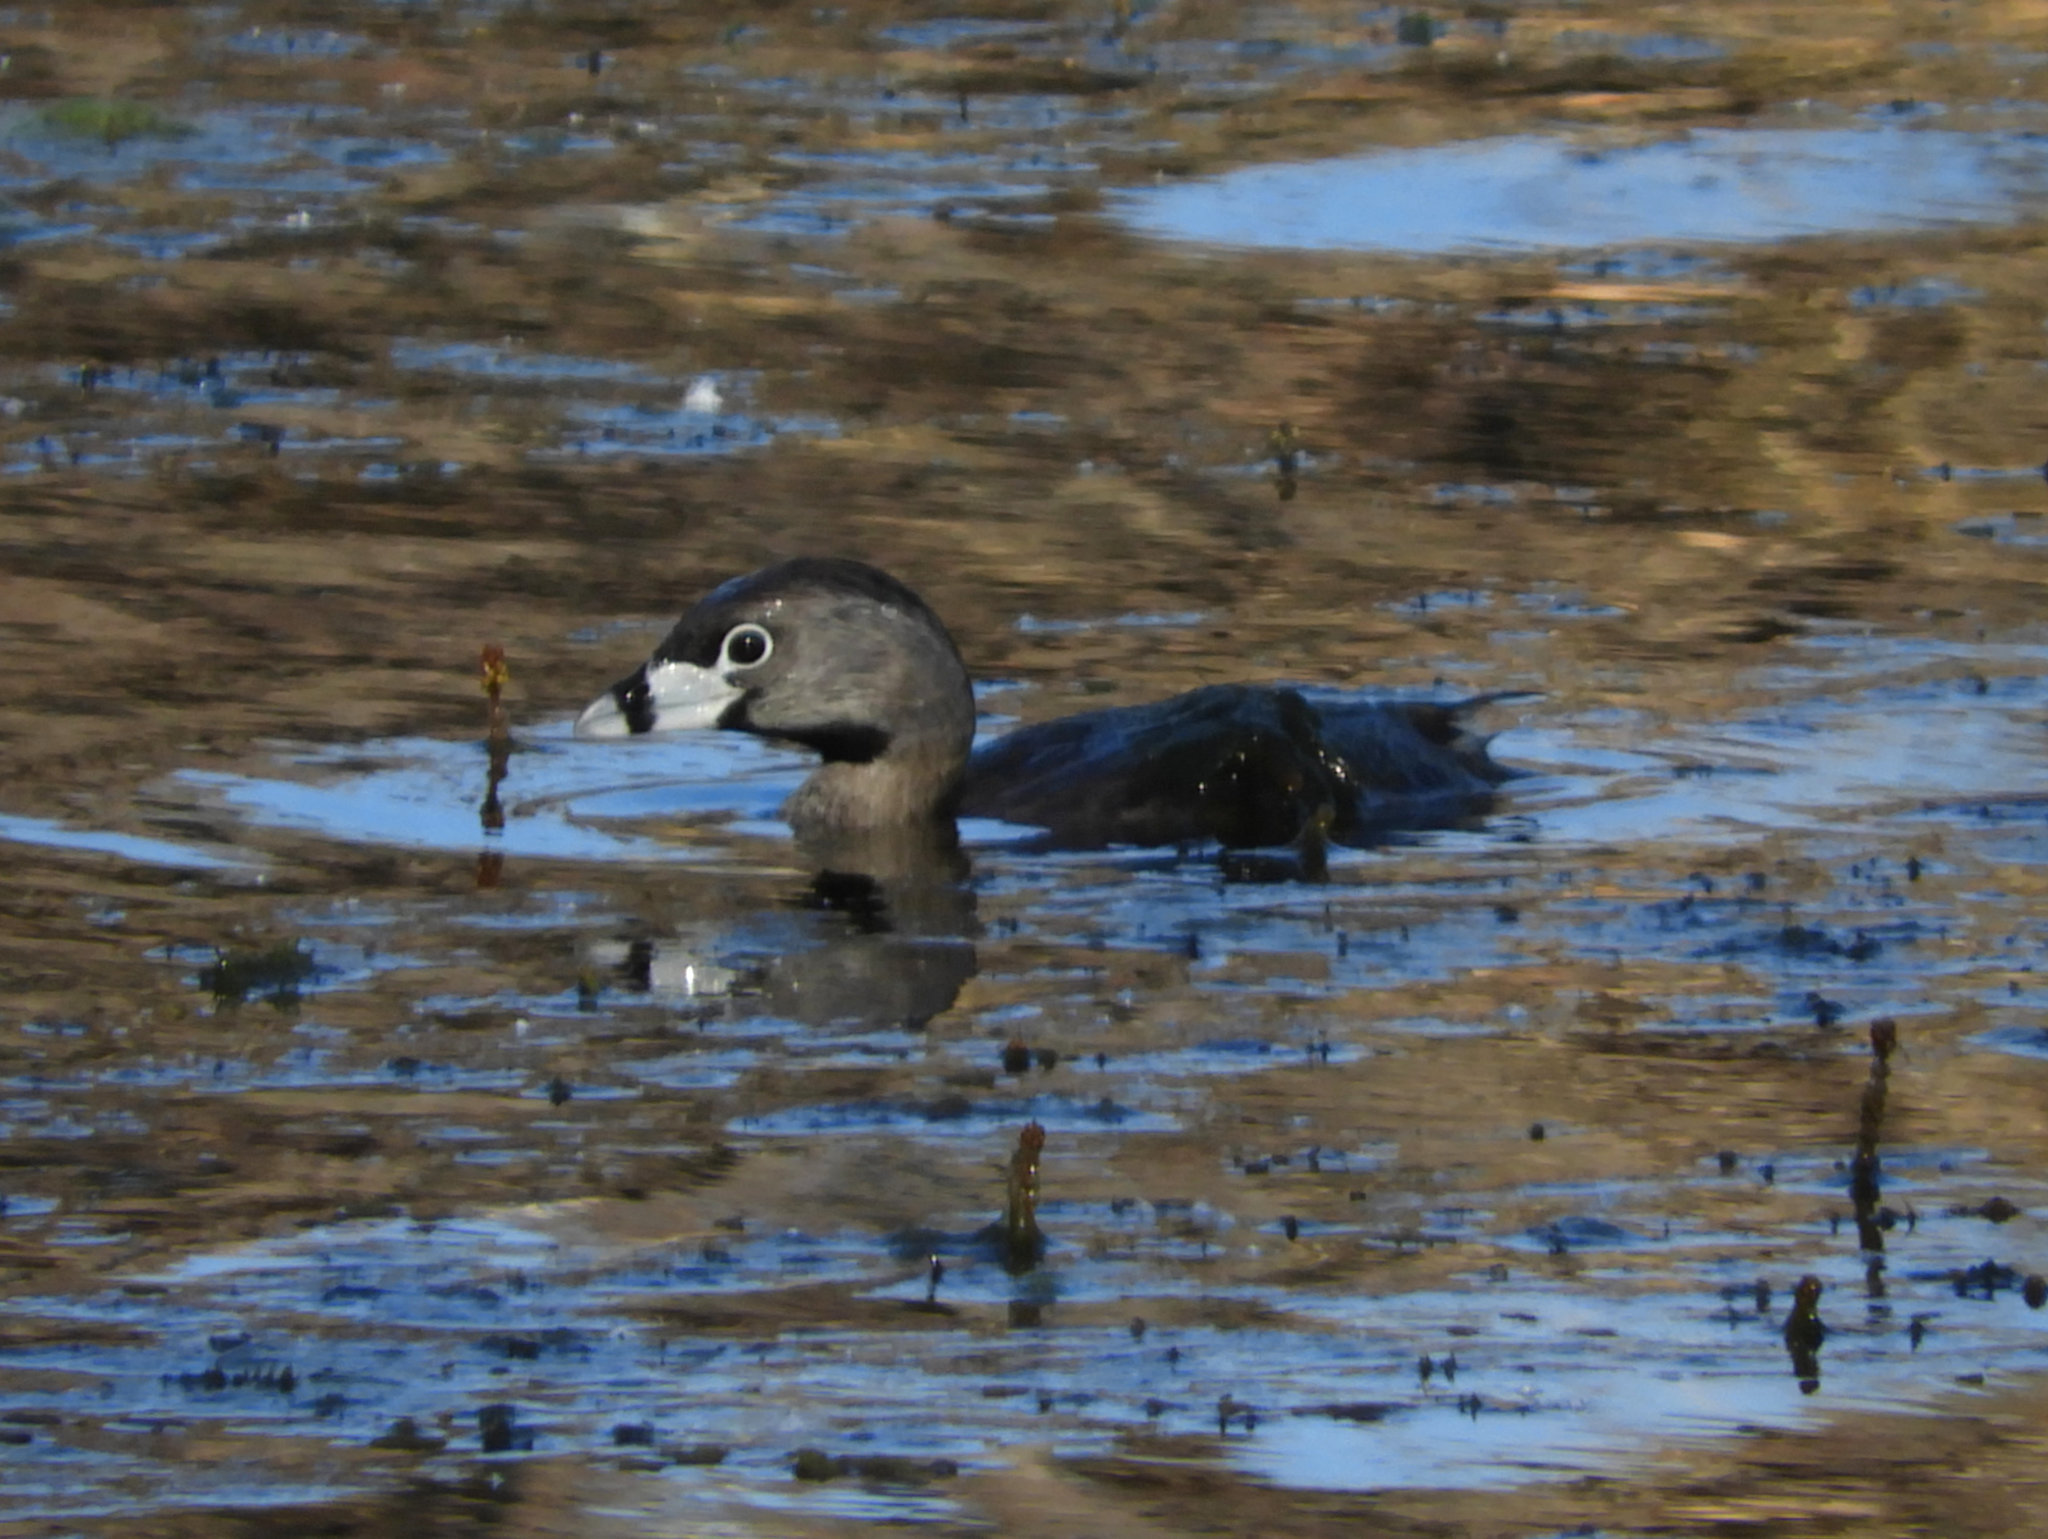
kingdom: Animalia
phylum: Chordata
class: Aves
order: Podicipediformes
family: Podicipedidae
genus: Podilymbus
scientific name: Podilymbus podiceps
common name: Pied-billed grebe
